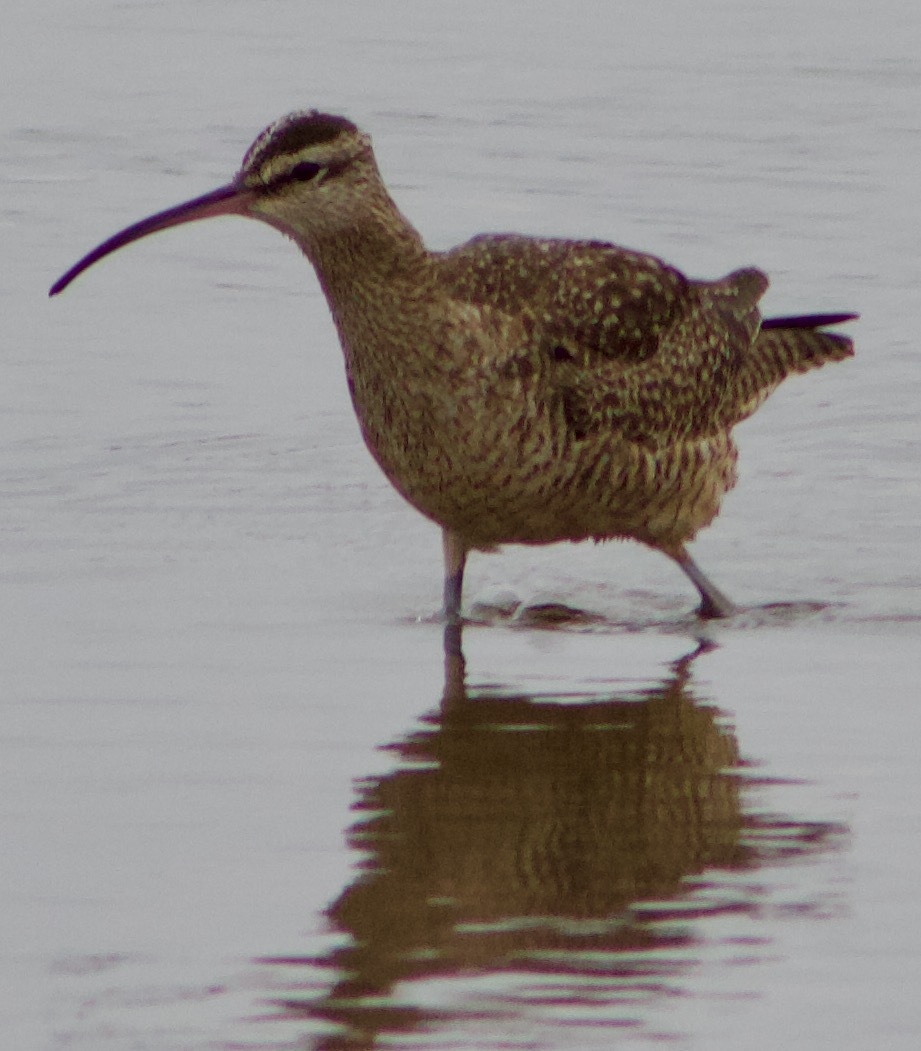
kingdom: Animalia
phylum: Chordata
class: Aves
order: Charadriiformes
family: Scolopacidae
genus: Numenius
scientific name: Numenius phaeopus
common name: Whimbrel
